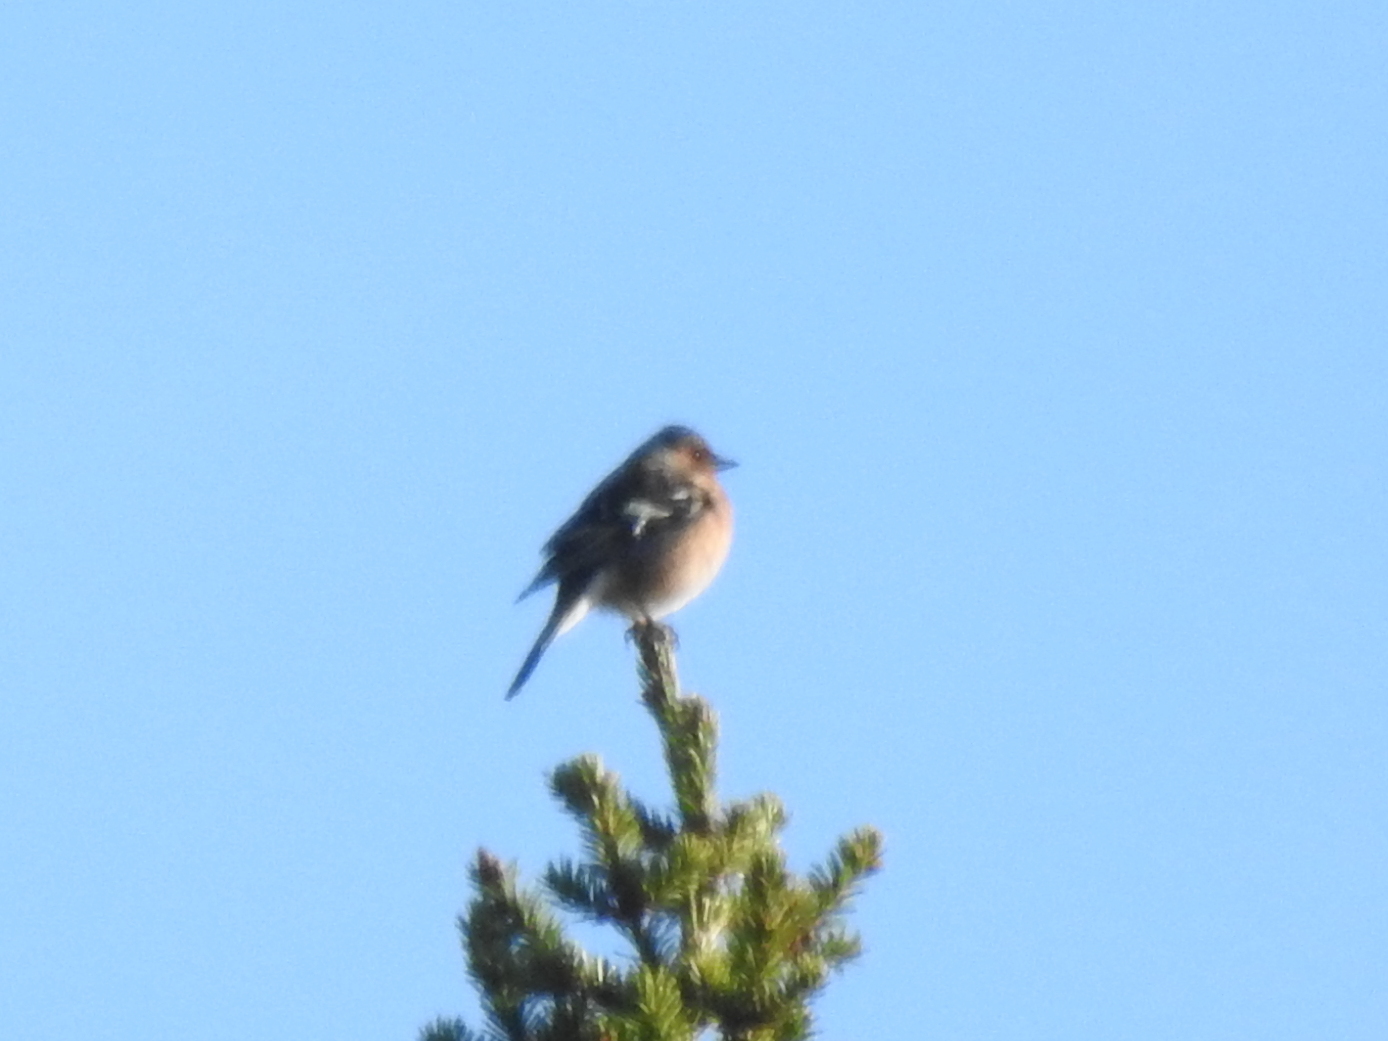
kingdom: Animalia
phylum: Chordata
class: Aves
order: Passeriformes
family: Fringillidae
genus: Fringilla
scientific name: Fringilla coelebs
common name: Common chaffinch
